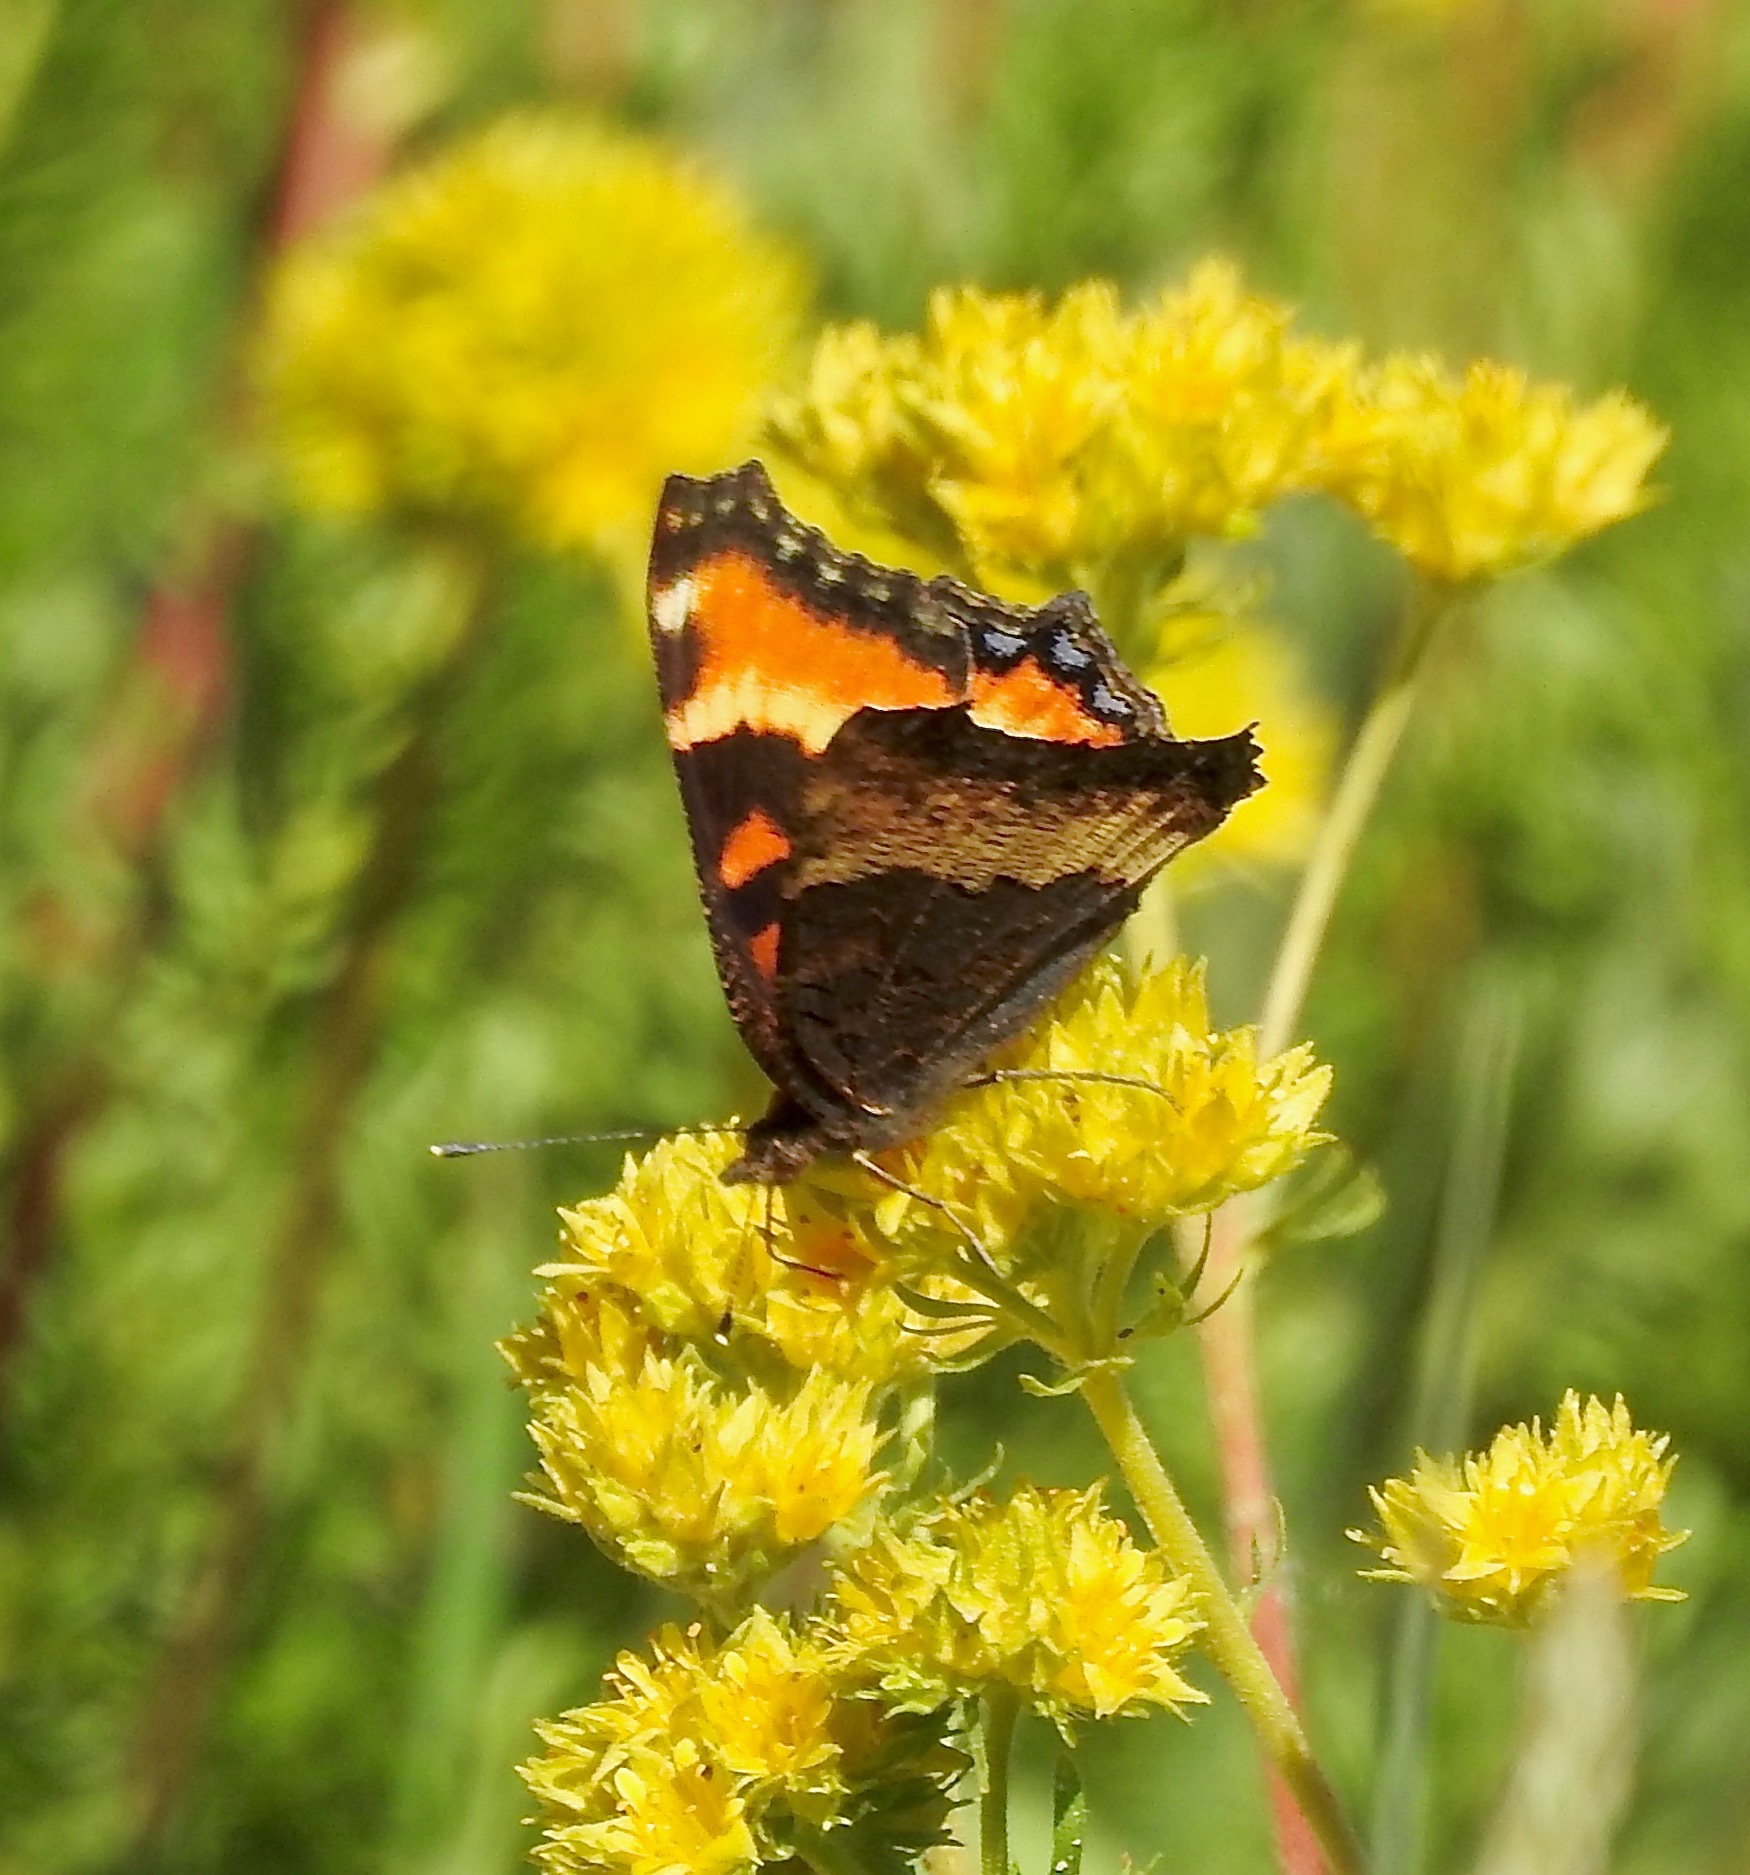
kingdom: Animalia
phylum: Arthropoda
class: Insecta
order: Lepidoptera
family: Nymphalidae
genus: Aglais
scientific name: Aglais milberti
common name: Milbert's tortoiseshell
